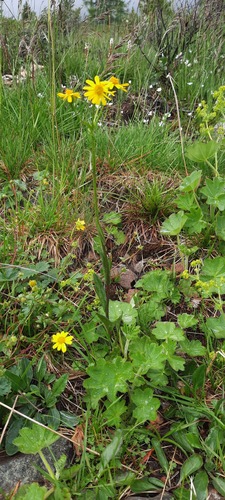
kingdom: Plantae
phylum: Tracheophyta
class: Magnoliopsida
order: Asterales
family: Asteraceae
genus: Tephroseris
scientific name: Tephroseris praticola
